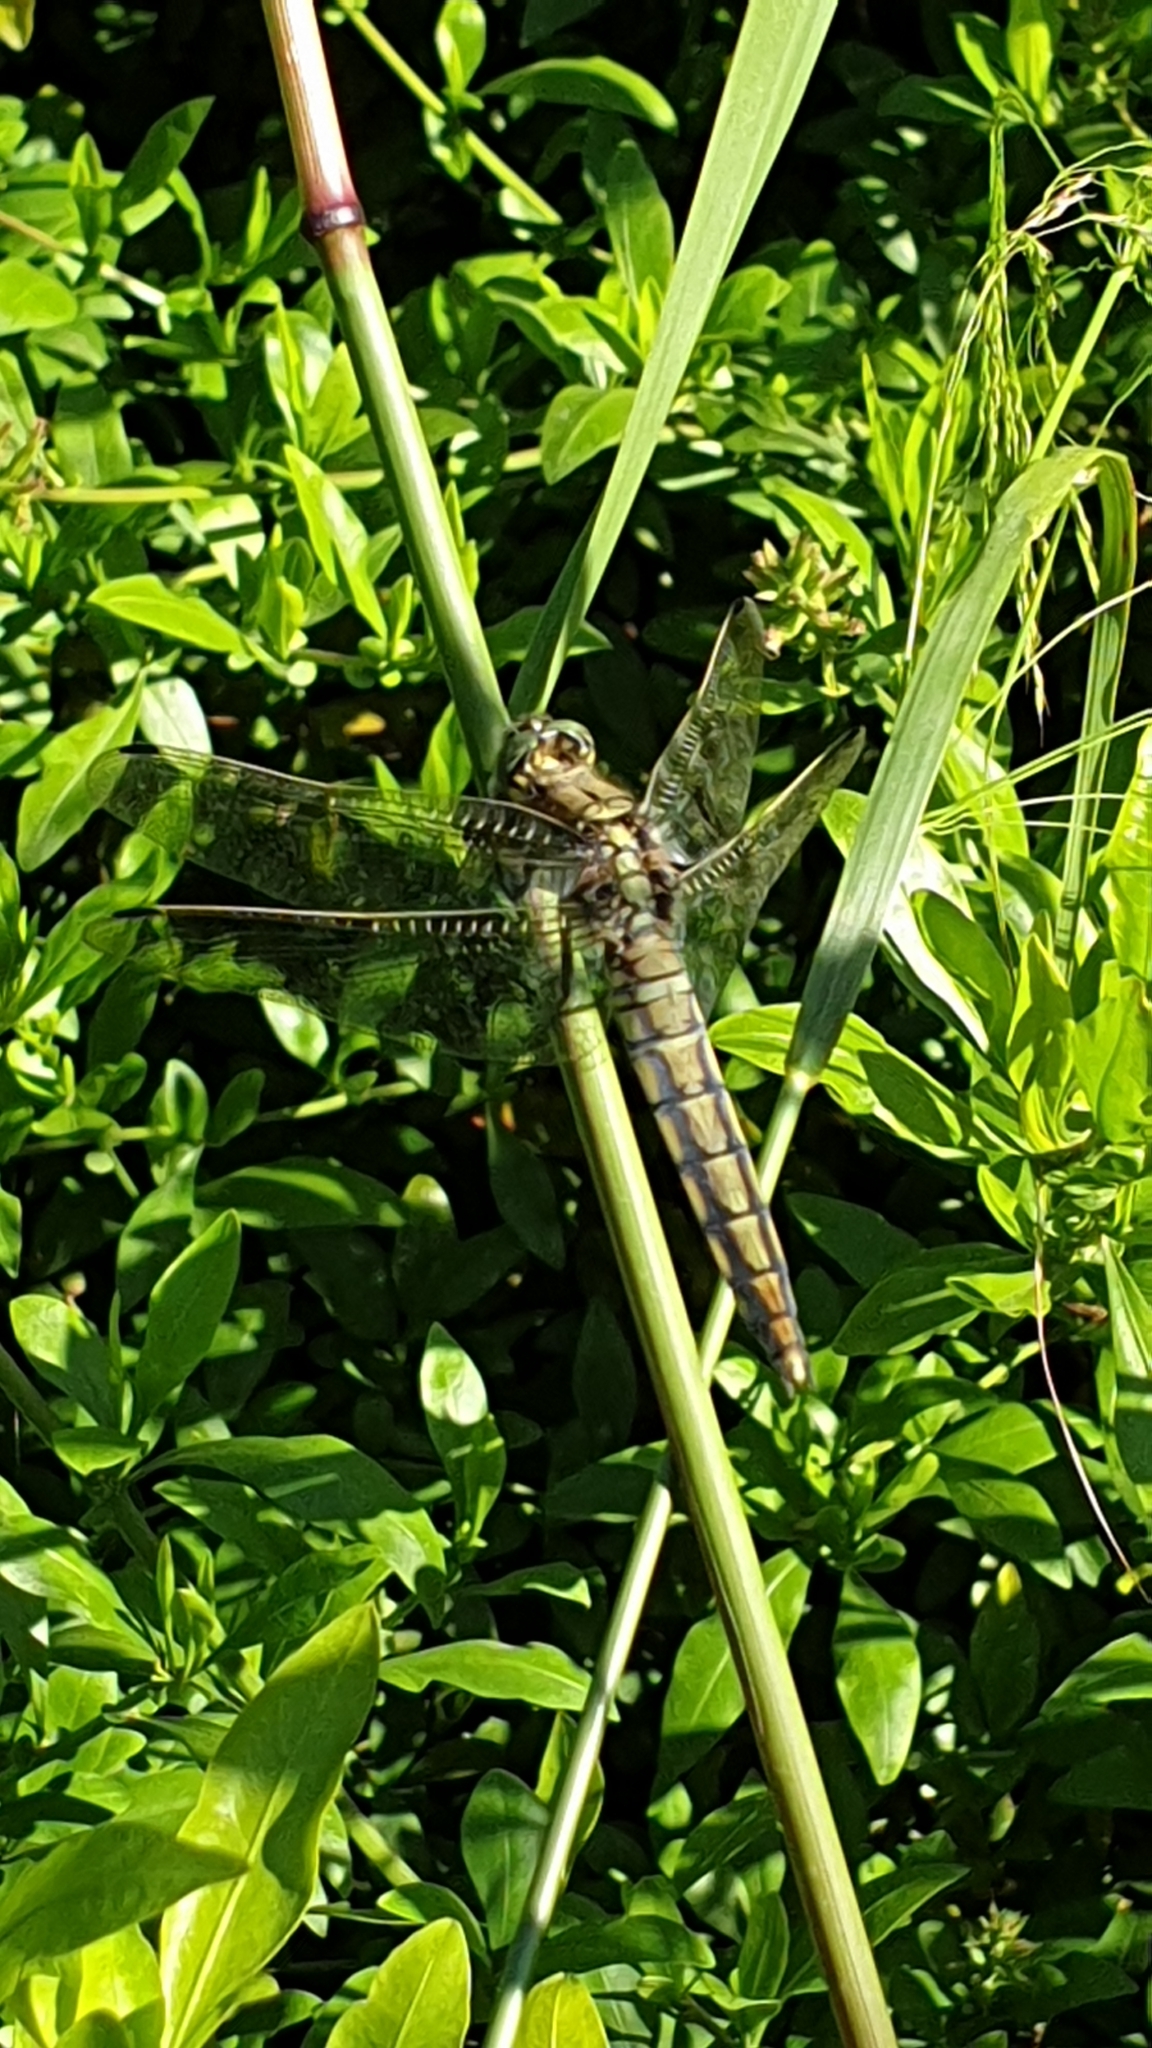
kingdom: Animalia
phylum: Arthropoda
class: Insecta
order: Odonata
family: Libellulidae
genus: Orthetrum
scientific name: Orthetrum cancellatum
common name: Black-tailed skimmer
